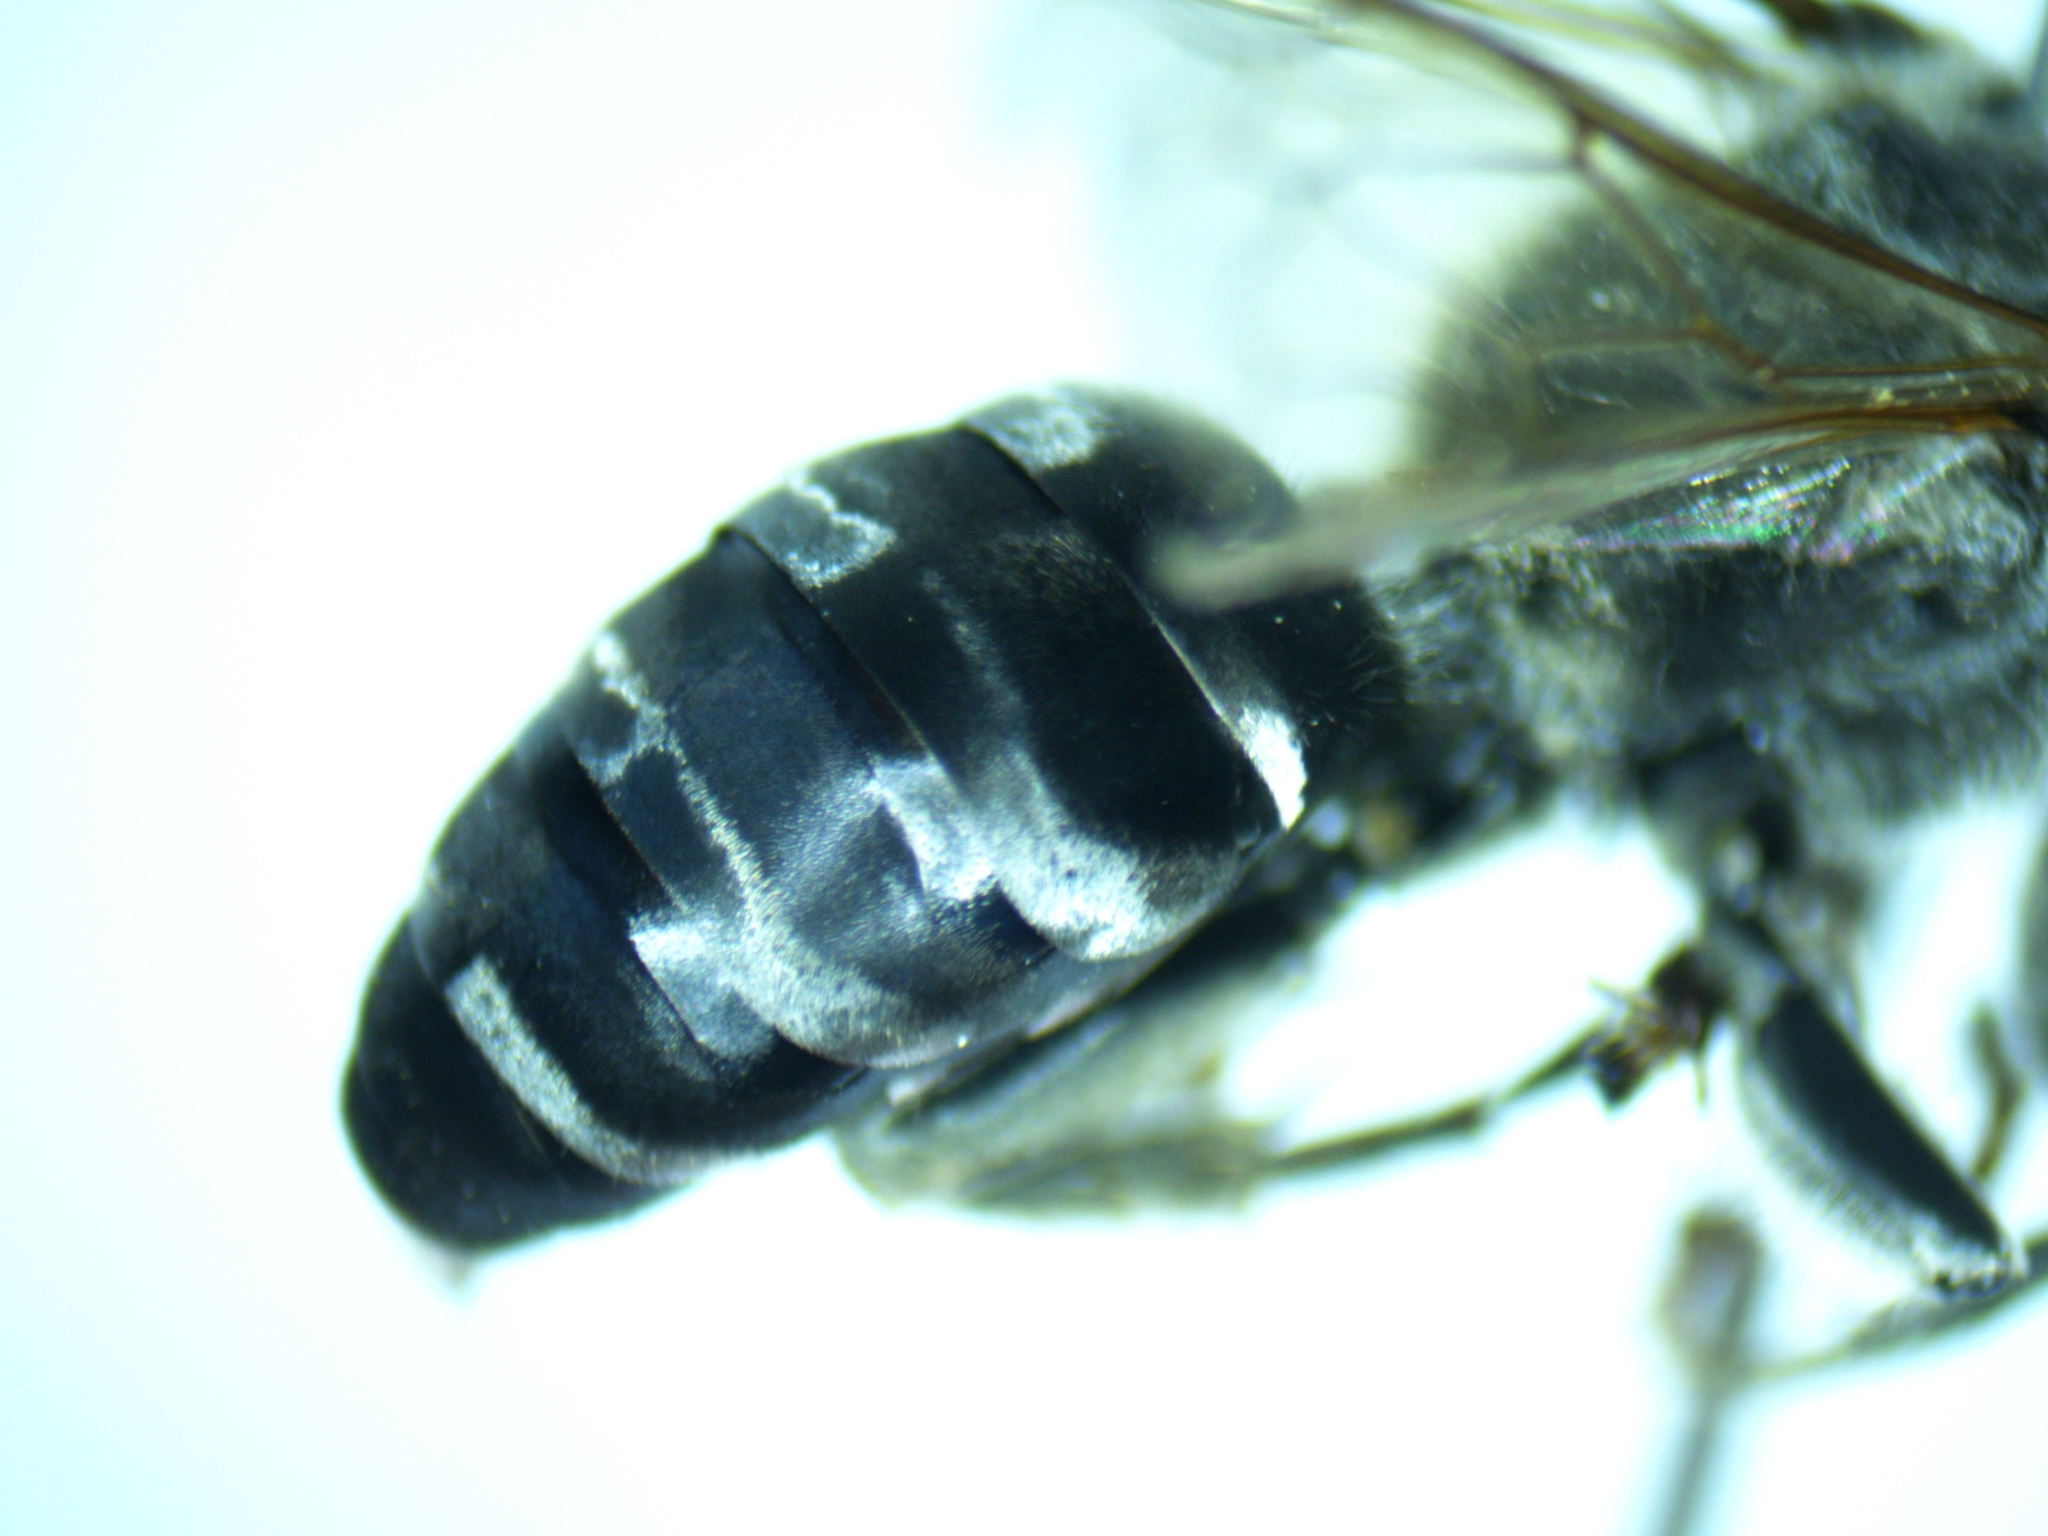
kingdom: Animalia
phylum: Arthropoda
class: Insecta
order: Hymenoptera
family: Crabronidae
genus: Tachytes
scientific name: Tachytes pennsylvanicus
